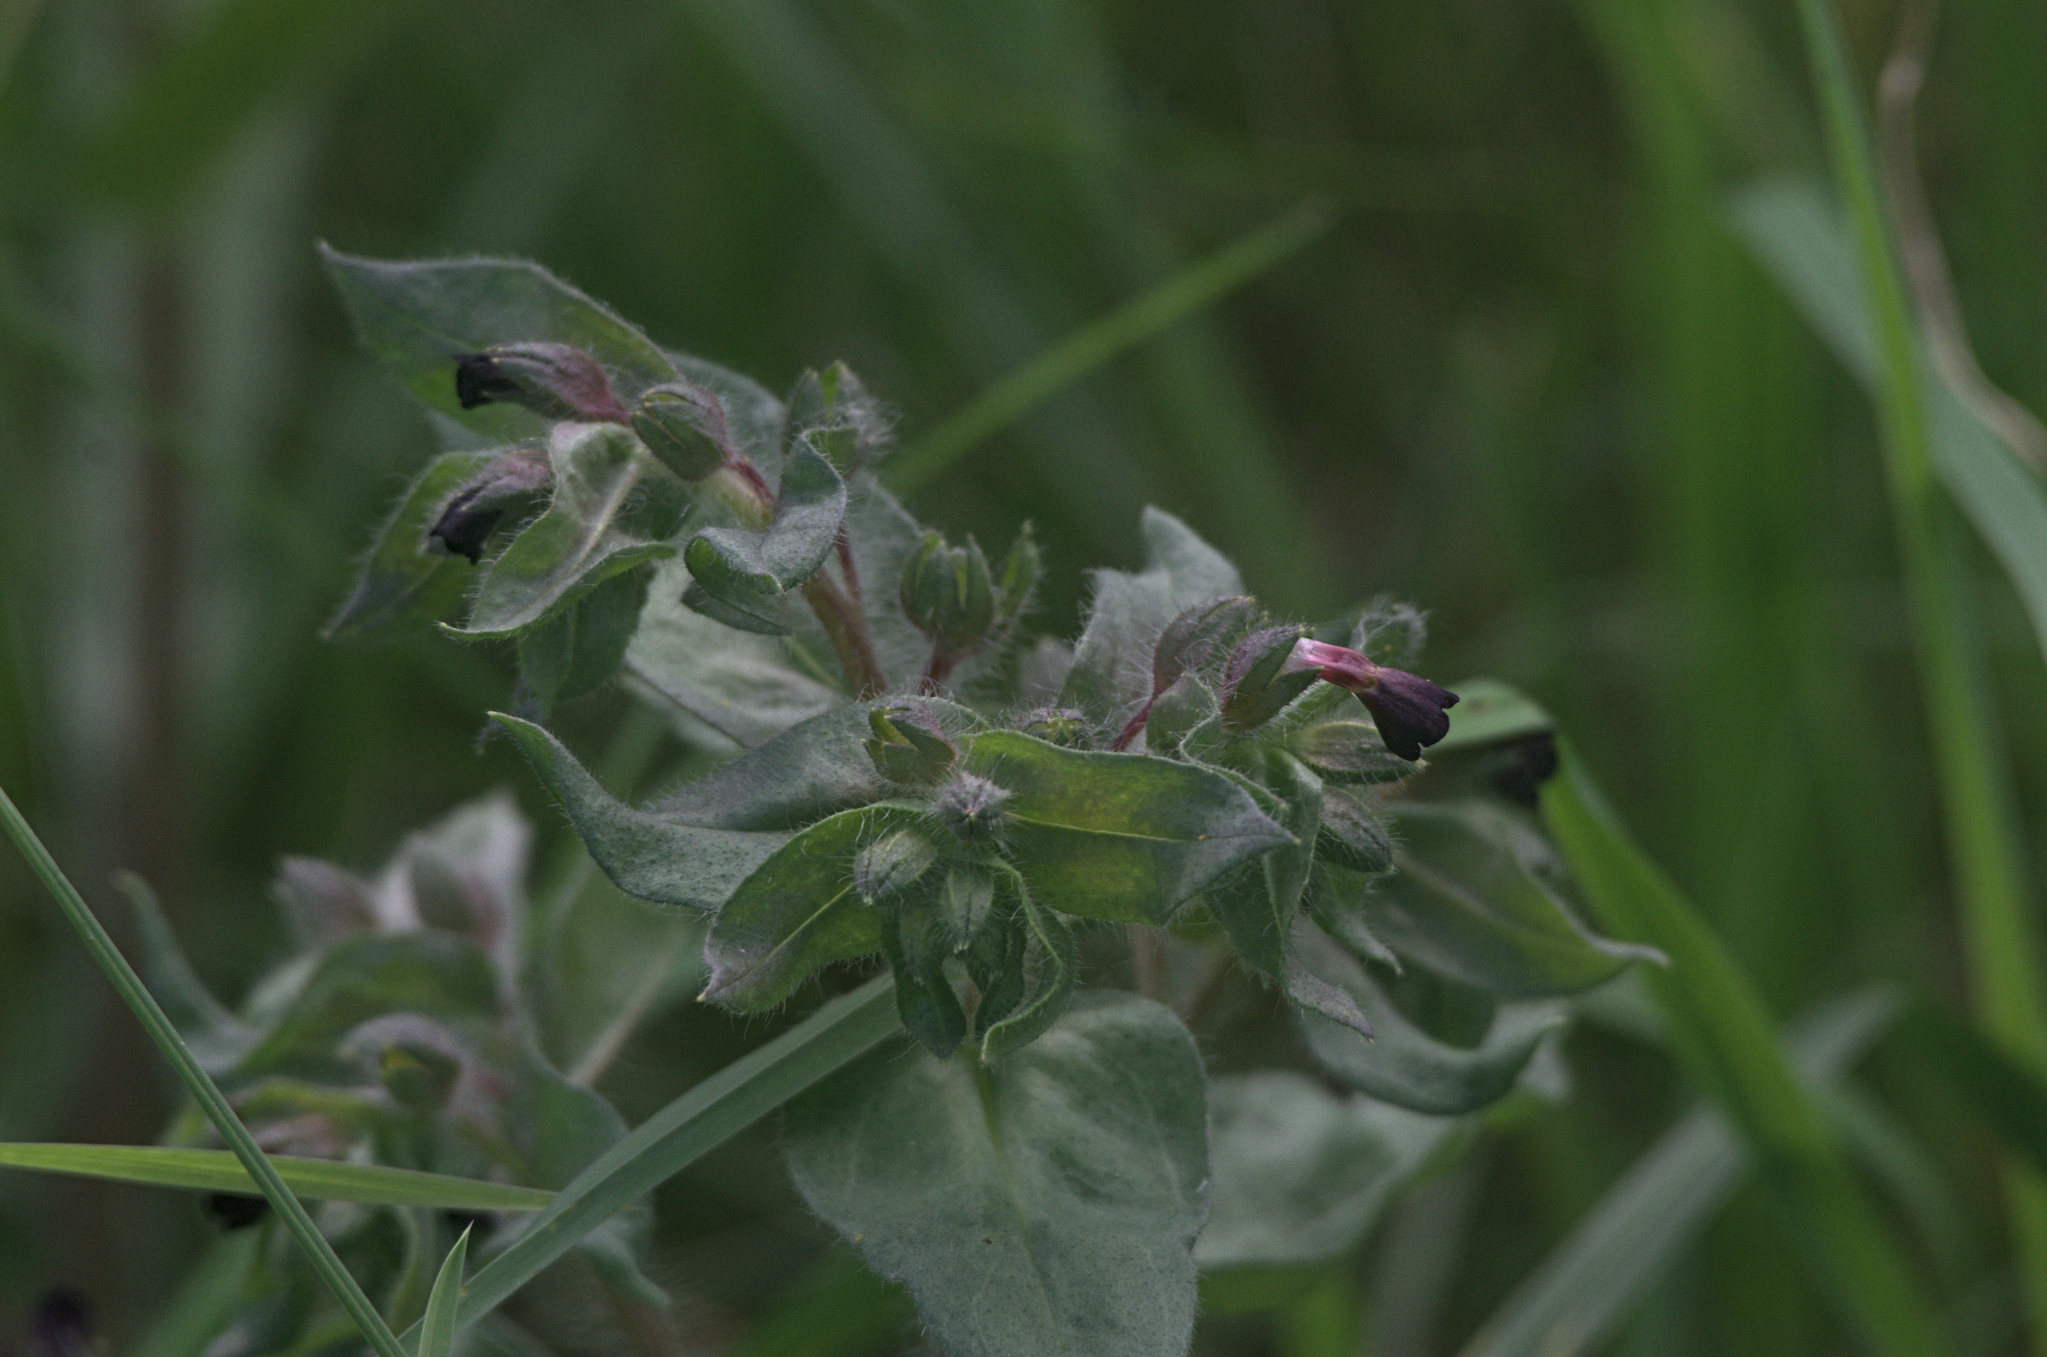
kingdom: Plantae
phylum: Tracheophyta
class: Magnoliopsida
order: Boraginales
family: Boraginaceae
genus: Nonea
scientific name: Nonea pulla
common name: Brown nonea
